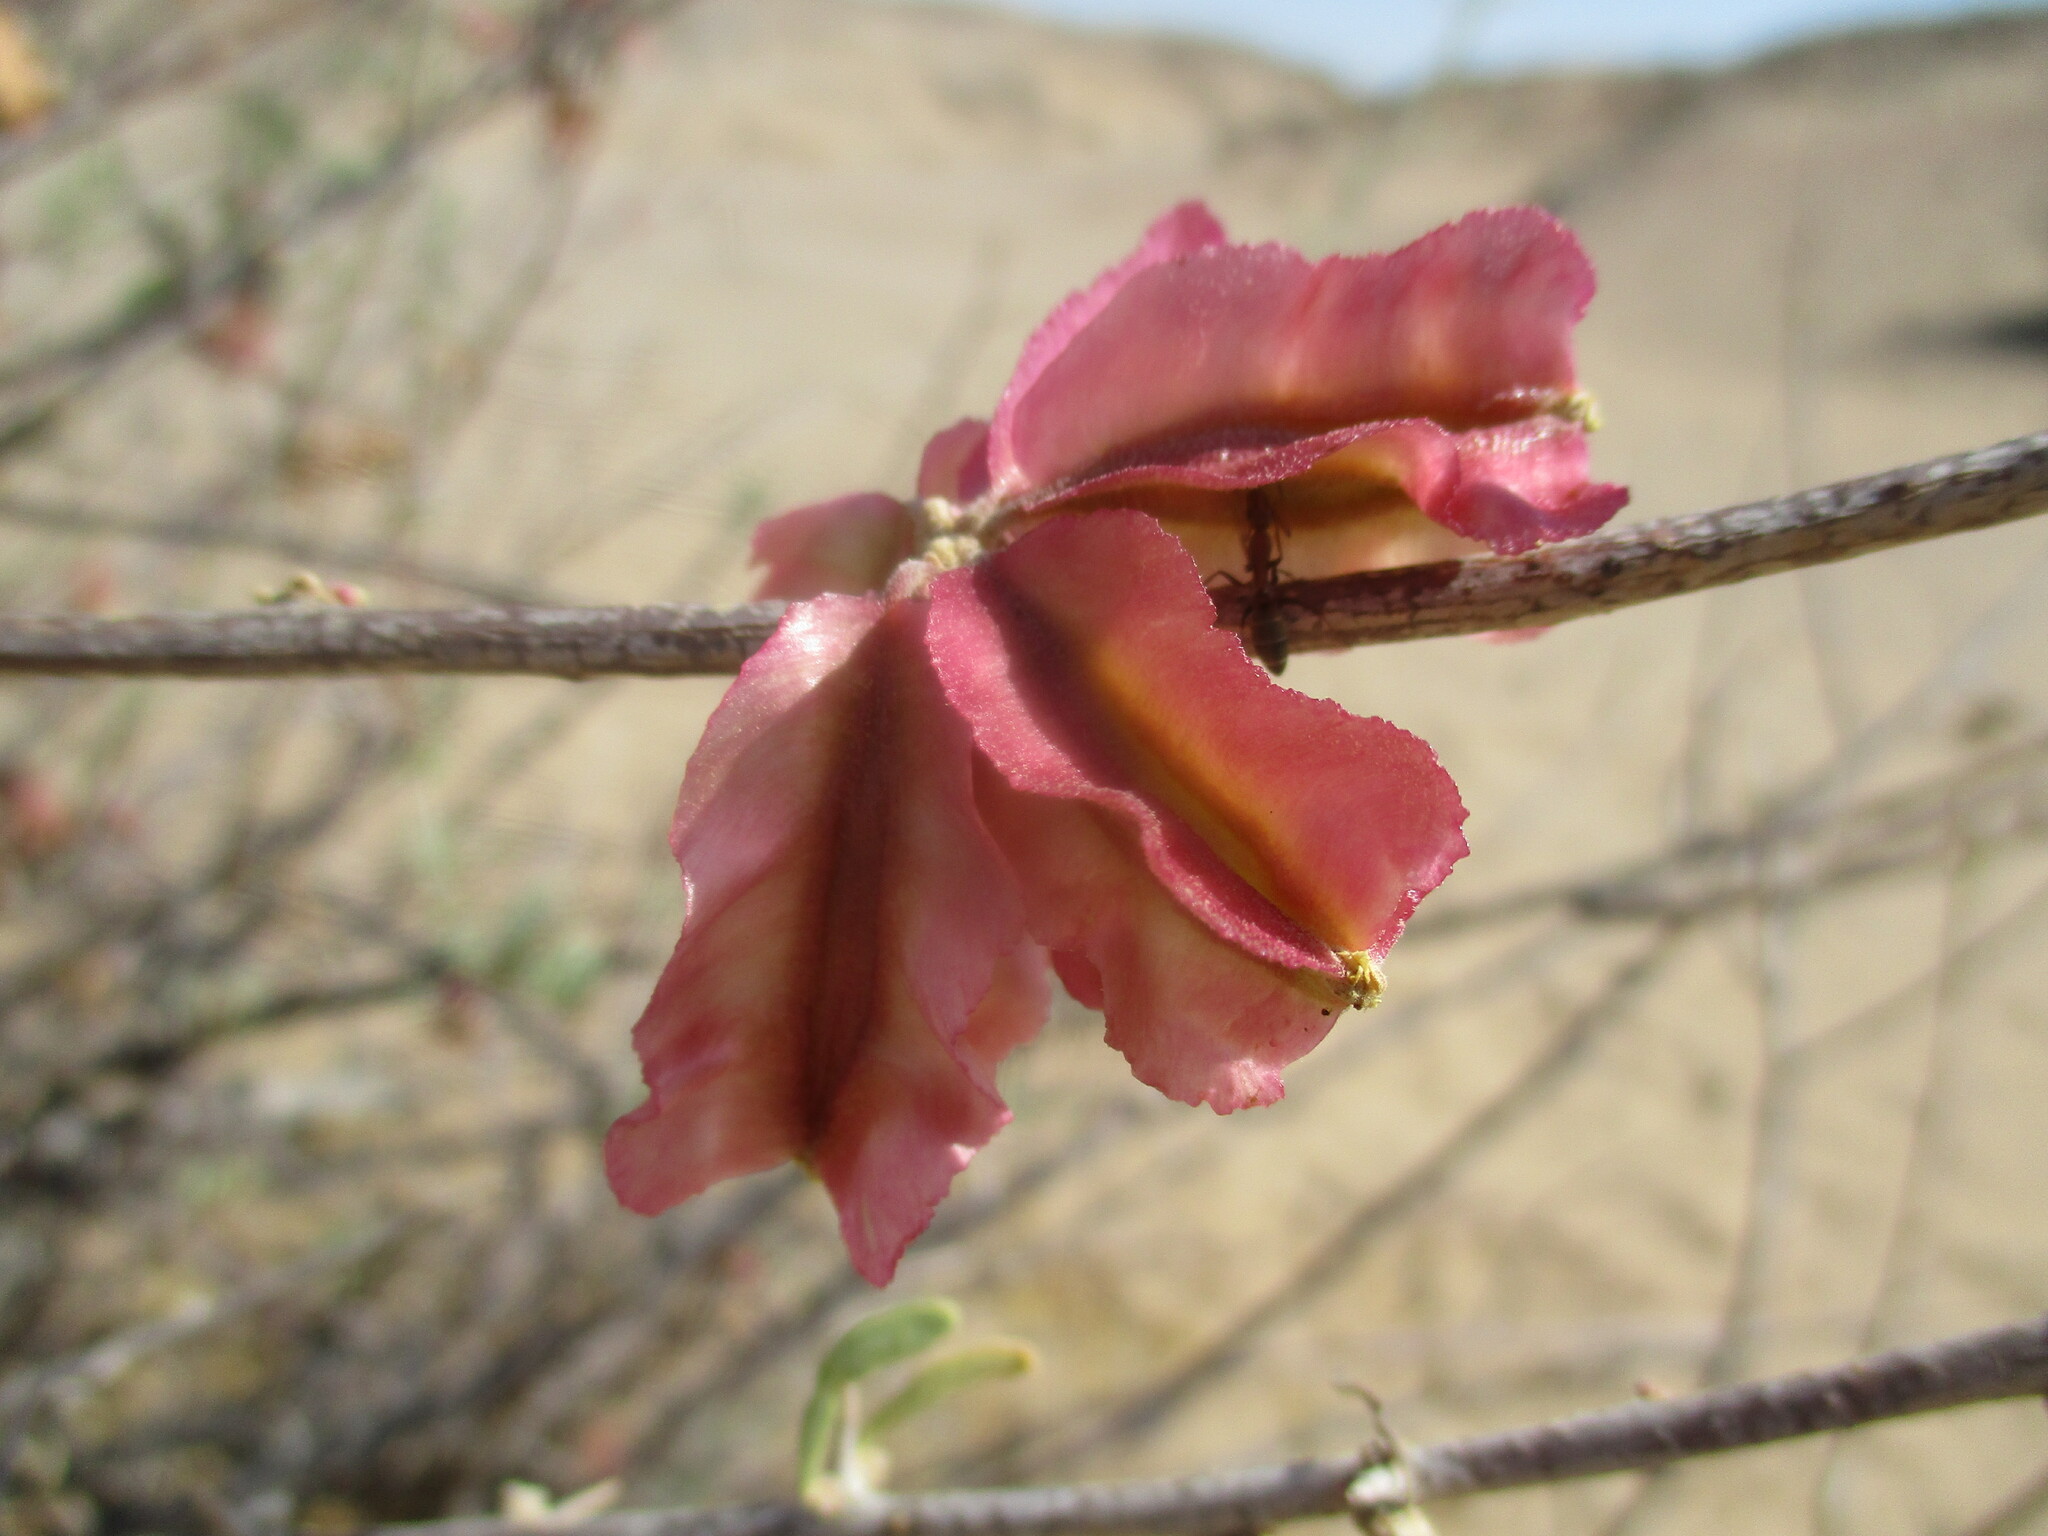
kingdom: Plantae
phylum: Tracheophyta
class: Magnoliopsida
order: Caryophyllales
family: Nyctaginaceae
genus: Phaeoptilum
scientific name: Phaeoptilum spinosum
